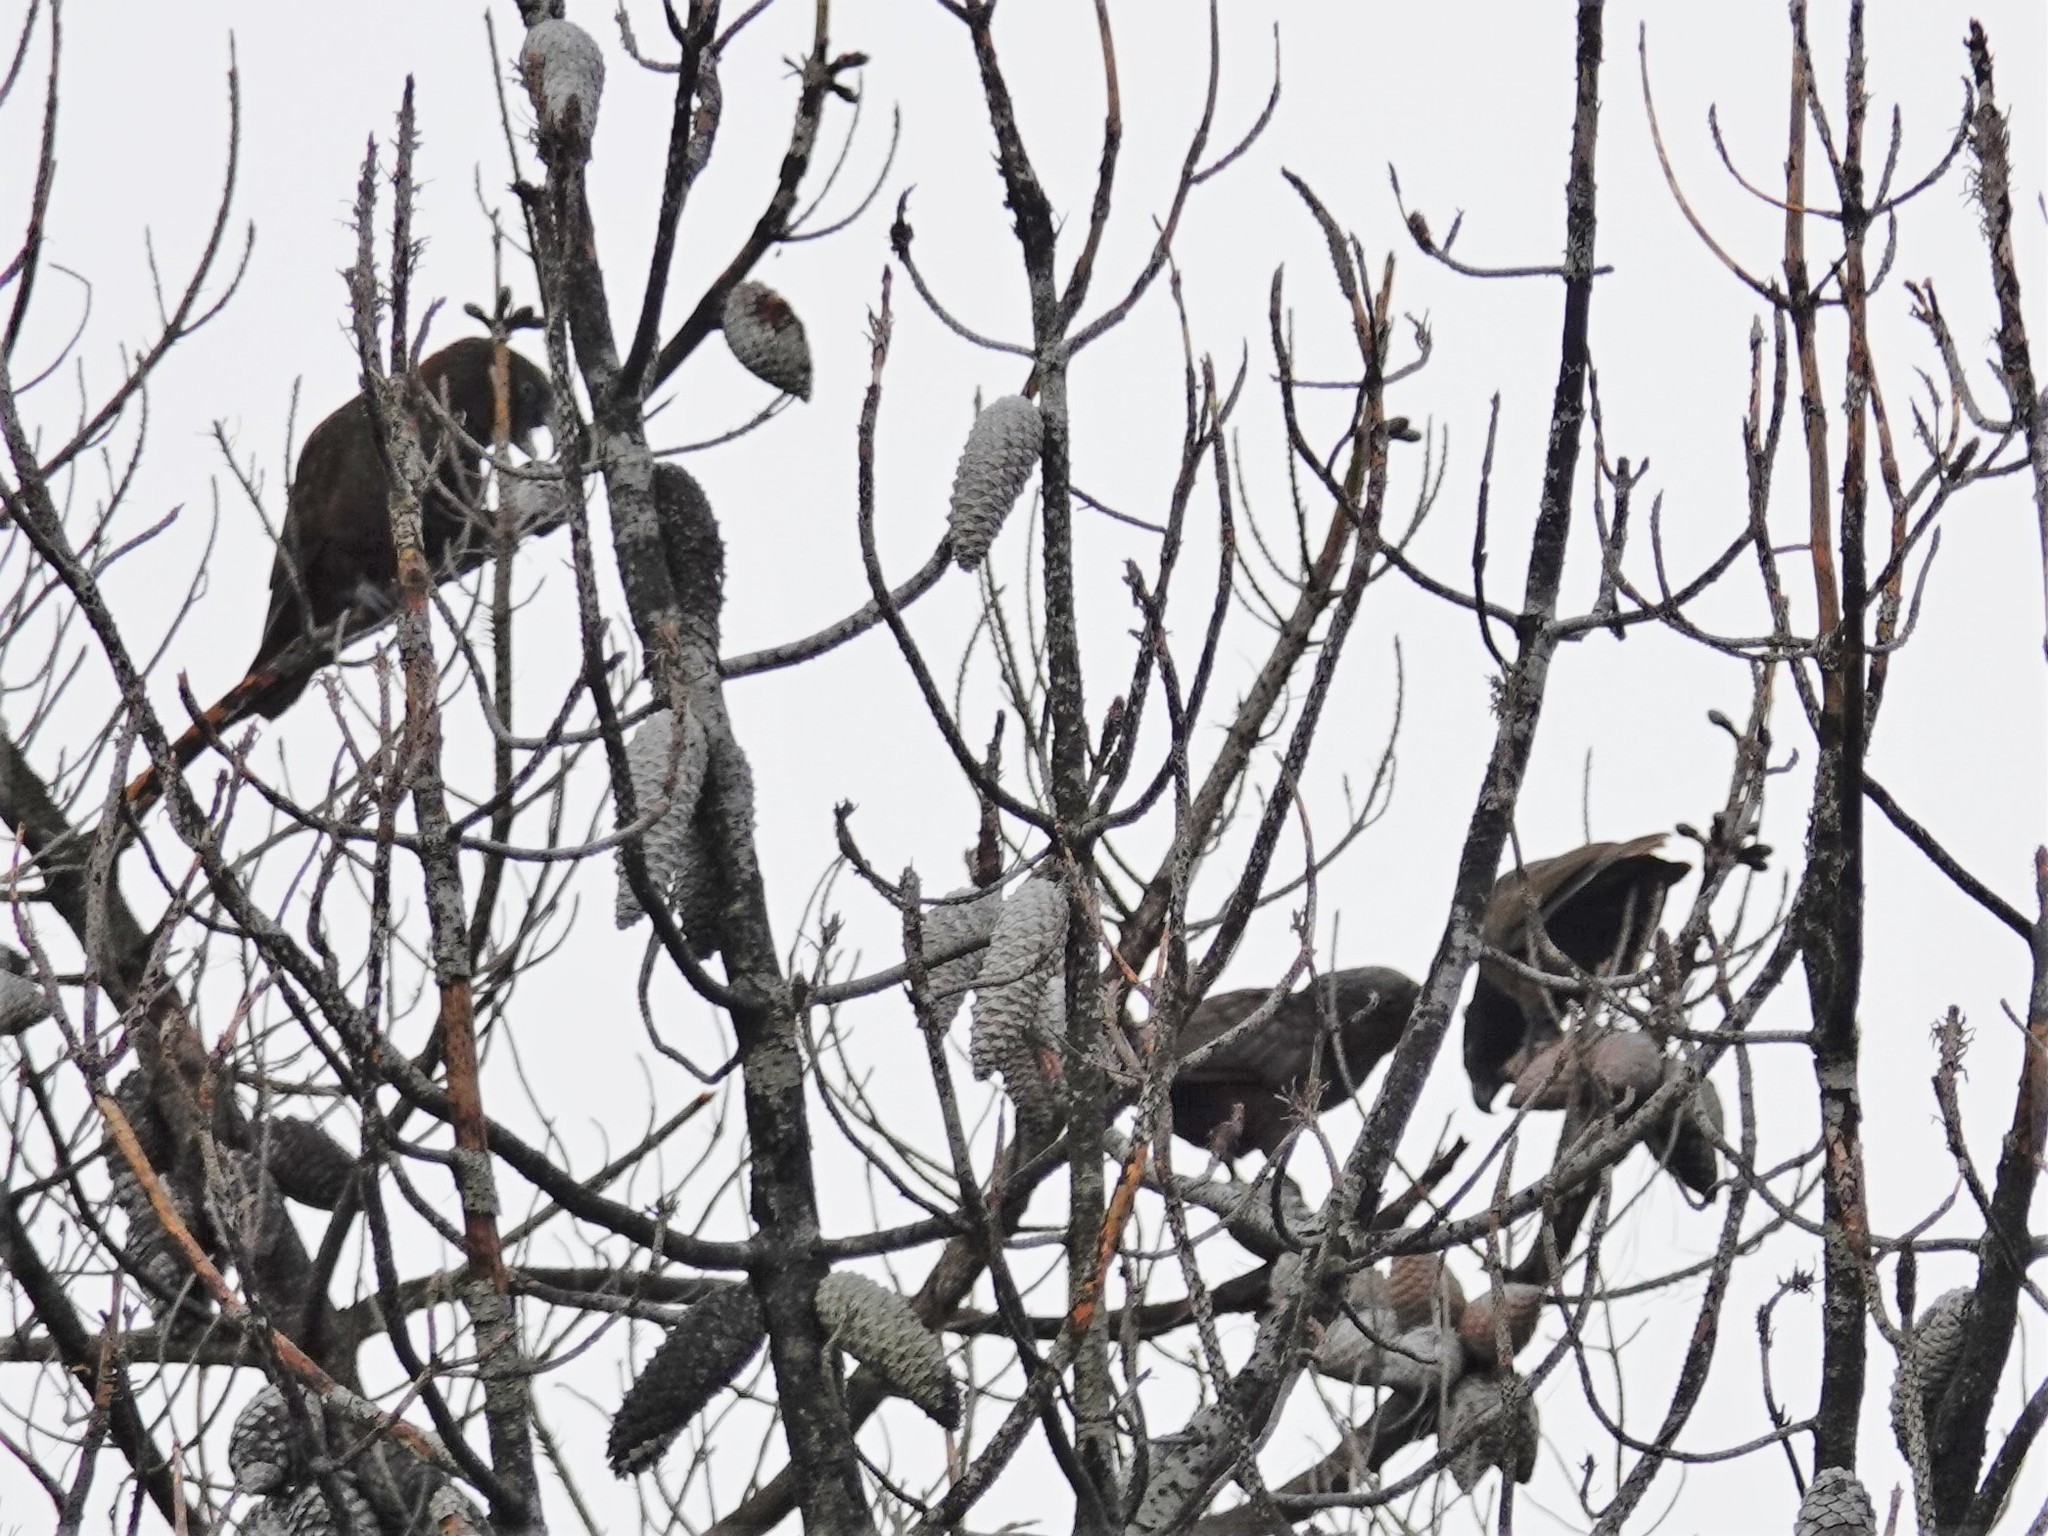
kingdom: Animalia
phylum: Chordata
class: Aves
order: Psittaciformes
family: Psittacidae
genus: Nestor
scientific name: Nestor meridionalis
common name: New zealand kaka
